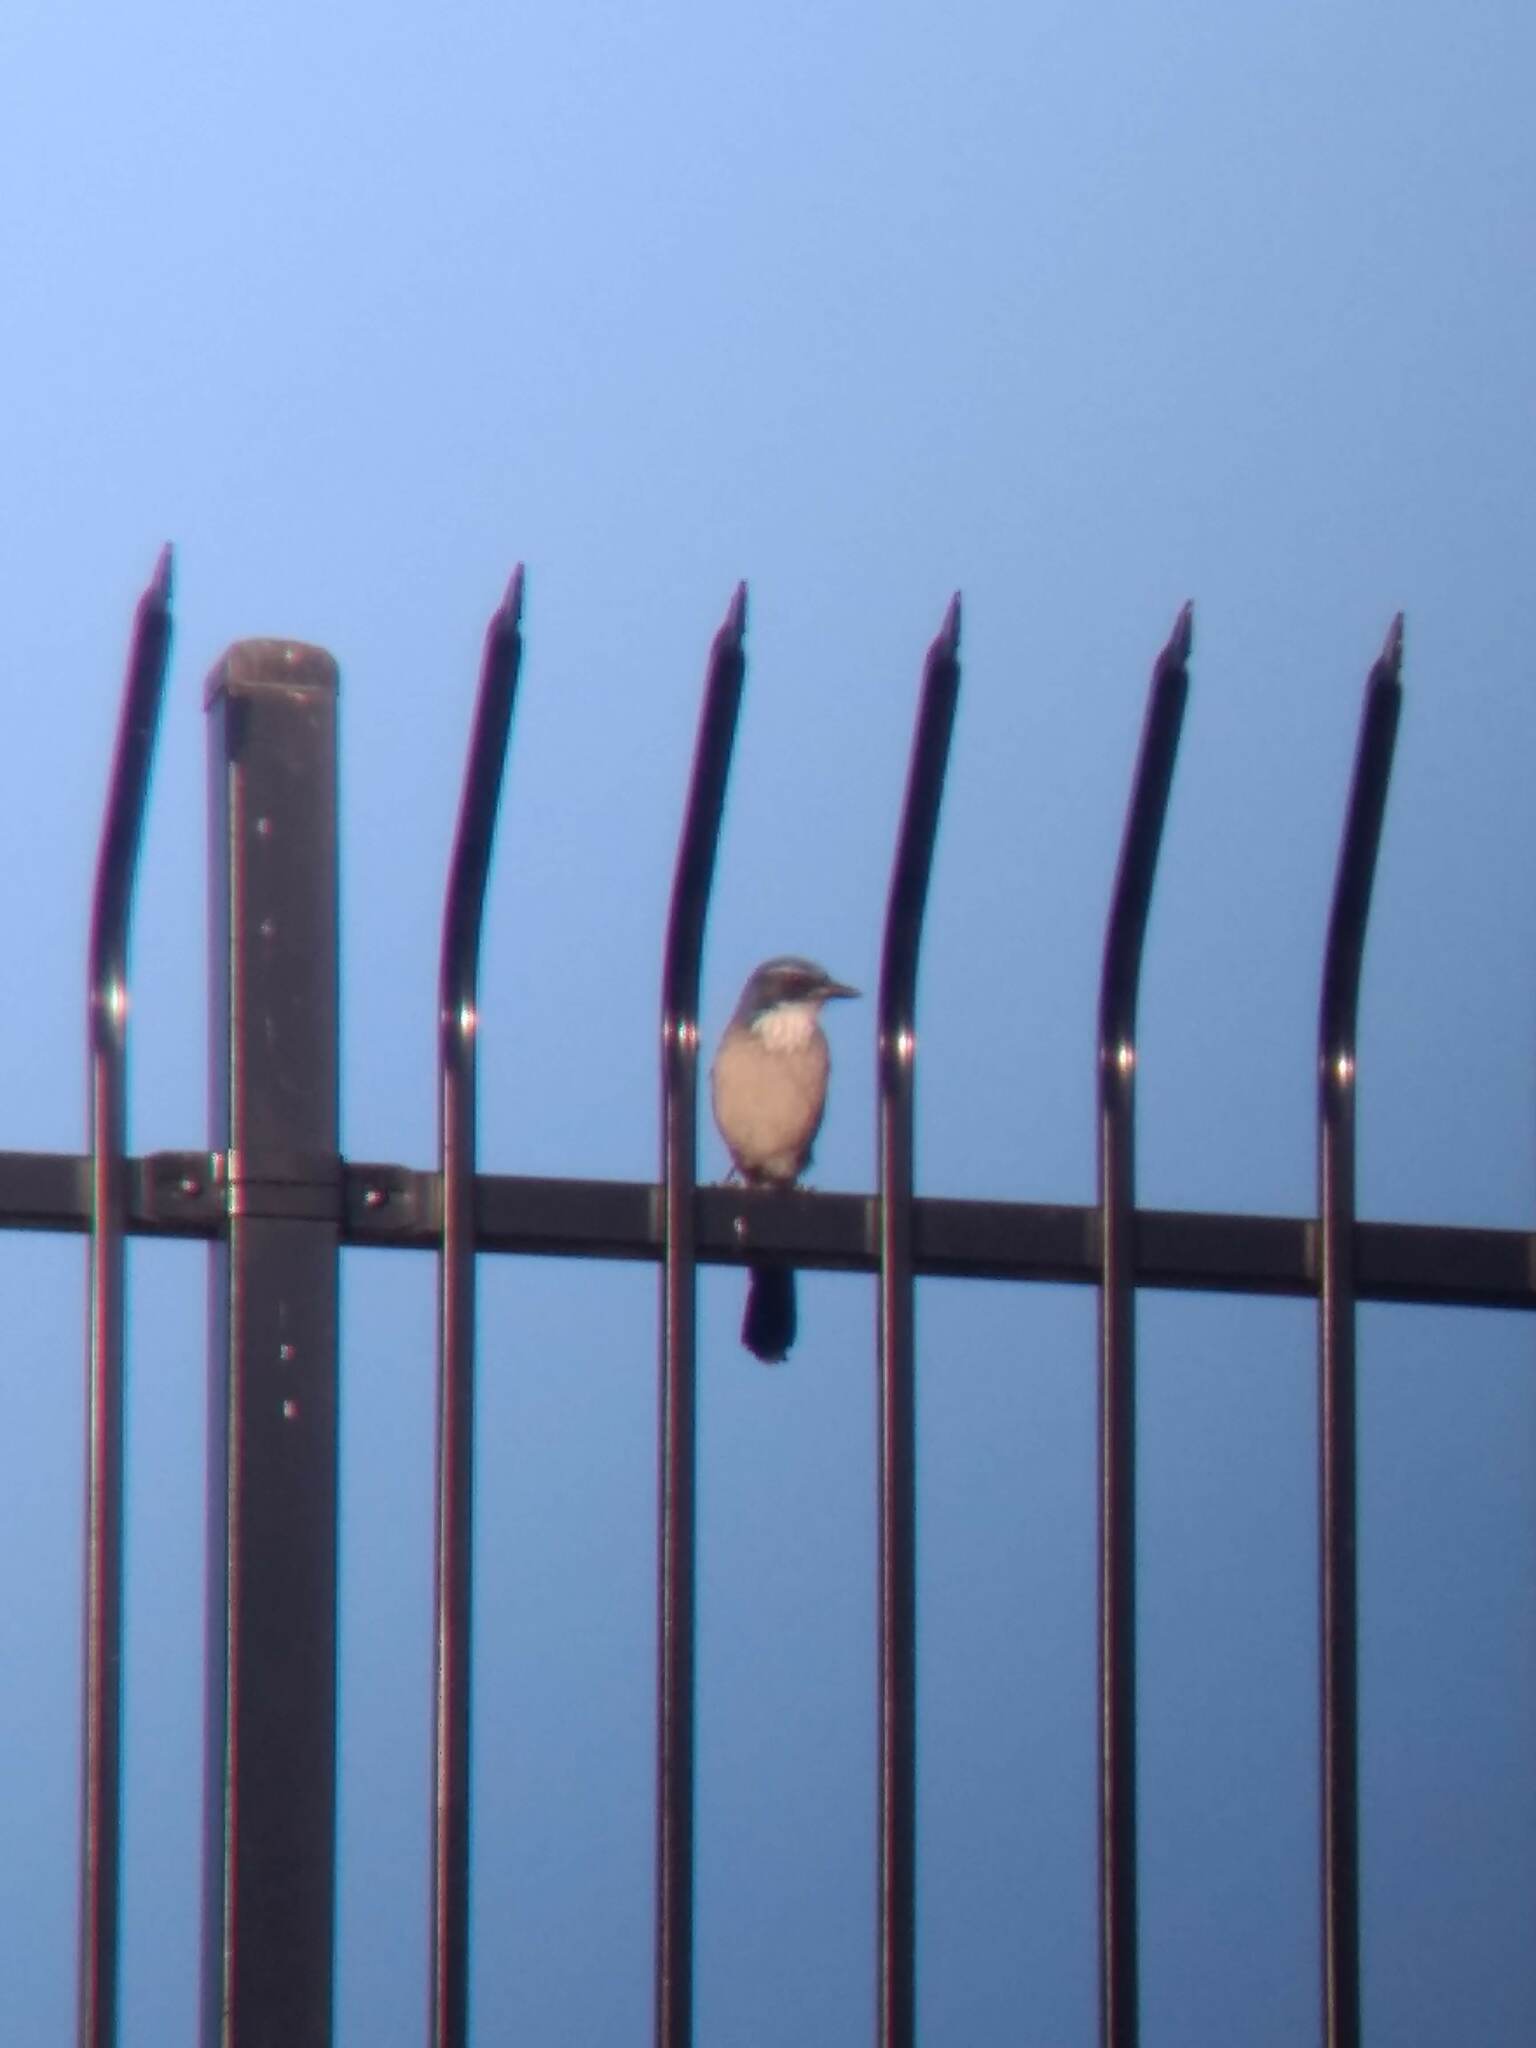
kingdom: Animalia
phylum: Chordata
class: Aves
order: Passeriformes
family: Corvidae
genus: Aphelocoma
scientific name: Aphelocoma californica
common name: California scrub-jay
